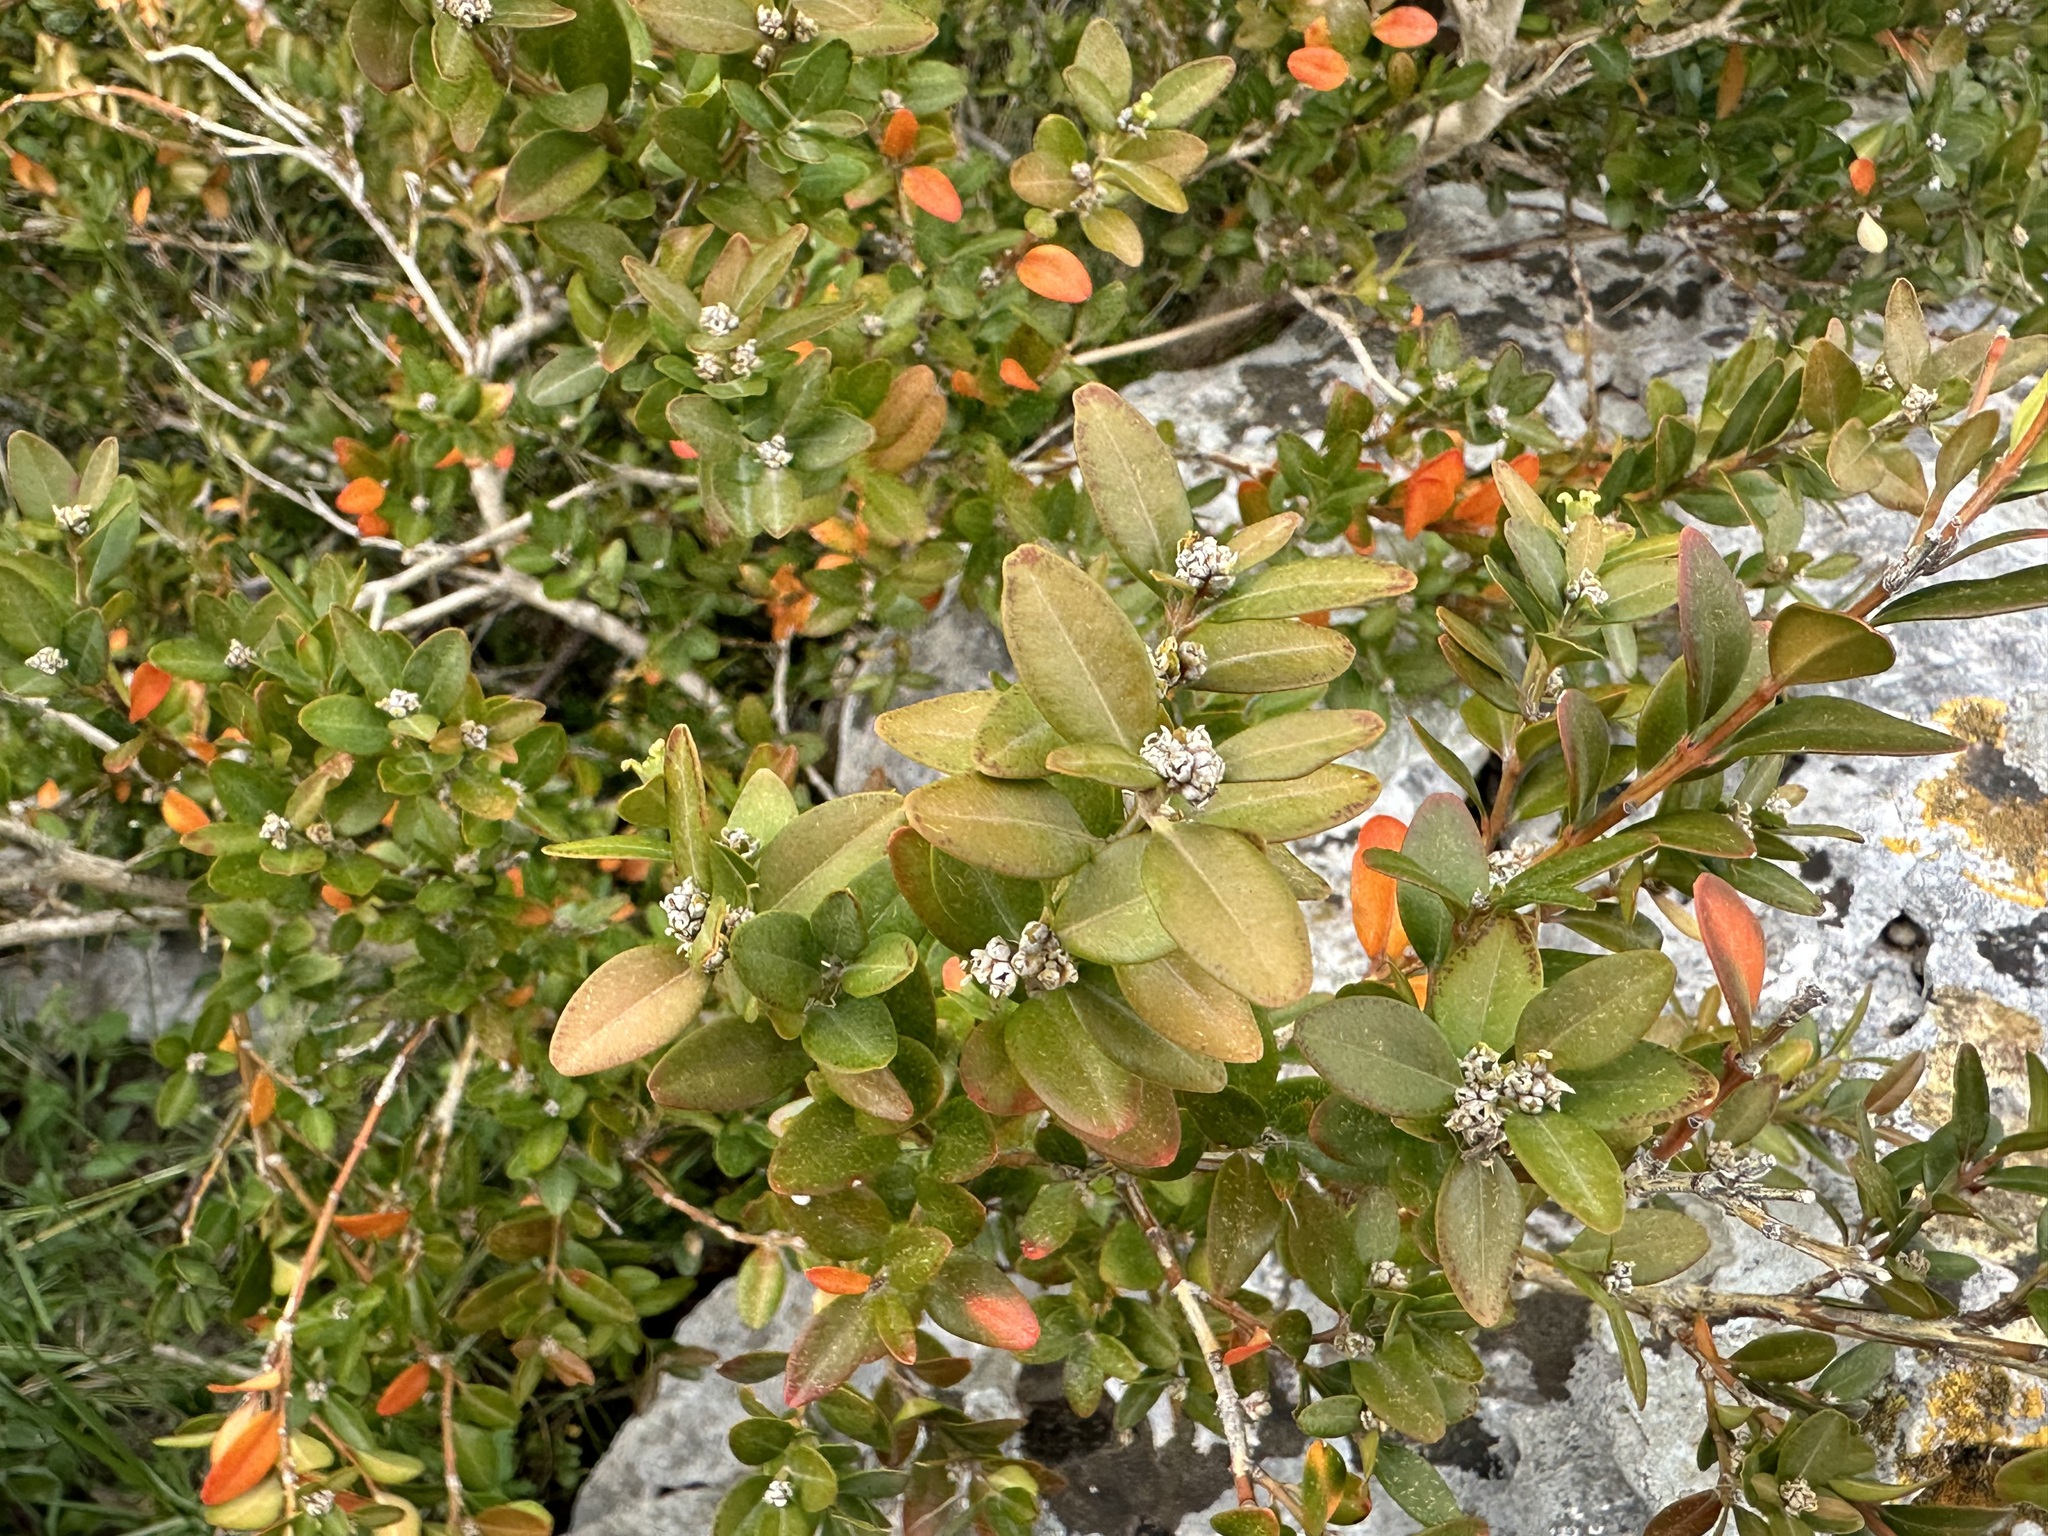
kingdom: Plantae
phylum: Tracheophyta
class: Magnoliopsida
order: Buxales
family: Buxaceae
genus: Buxus
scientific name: Buxus sempervirens
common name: Box
